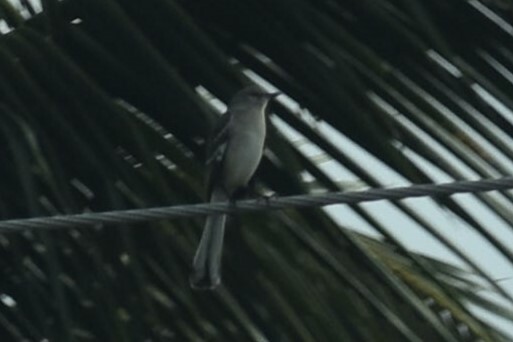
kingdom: Animalia
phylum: Chordata
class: Aves
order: Passeriformes
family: Mimidae
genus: Mimus
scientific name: Mimus polyglottos
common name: Northern mockingbird
